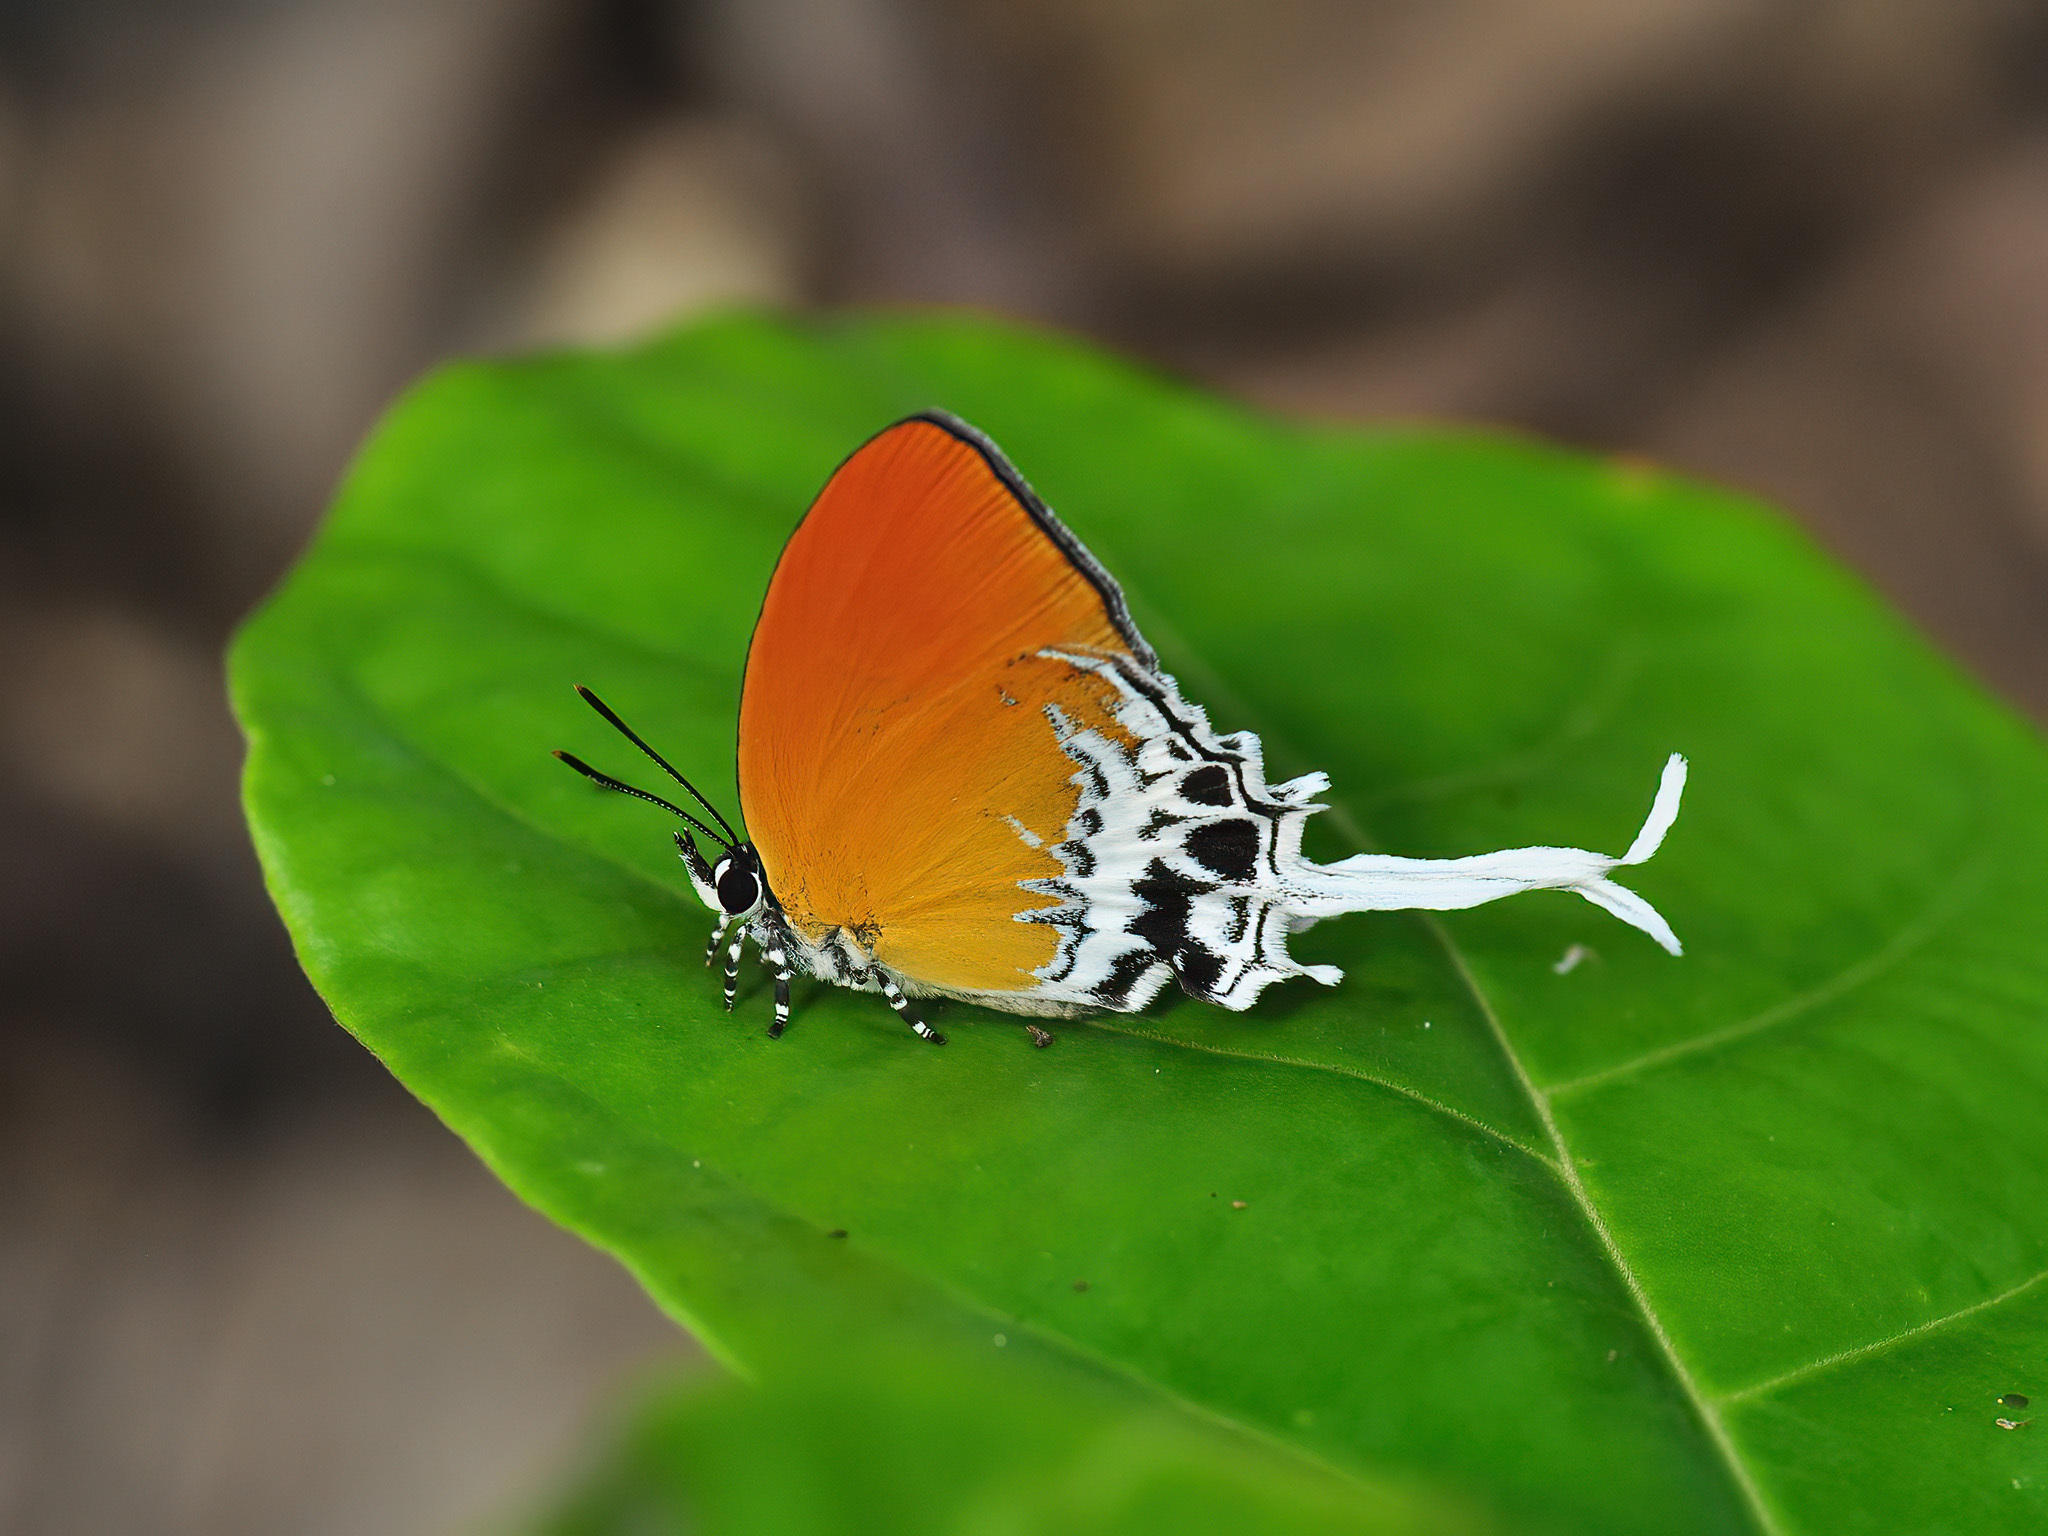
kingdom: Animalia
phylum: Arthropoda
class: Insecta
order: Lepidoptera
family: Lycaenidae
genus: Eooxylides
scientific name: Eooxylides tharis
